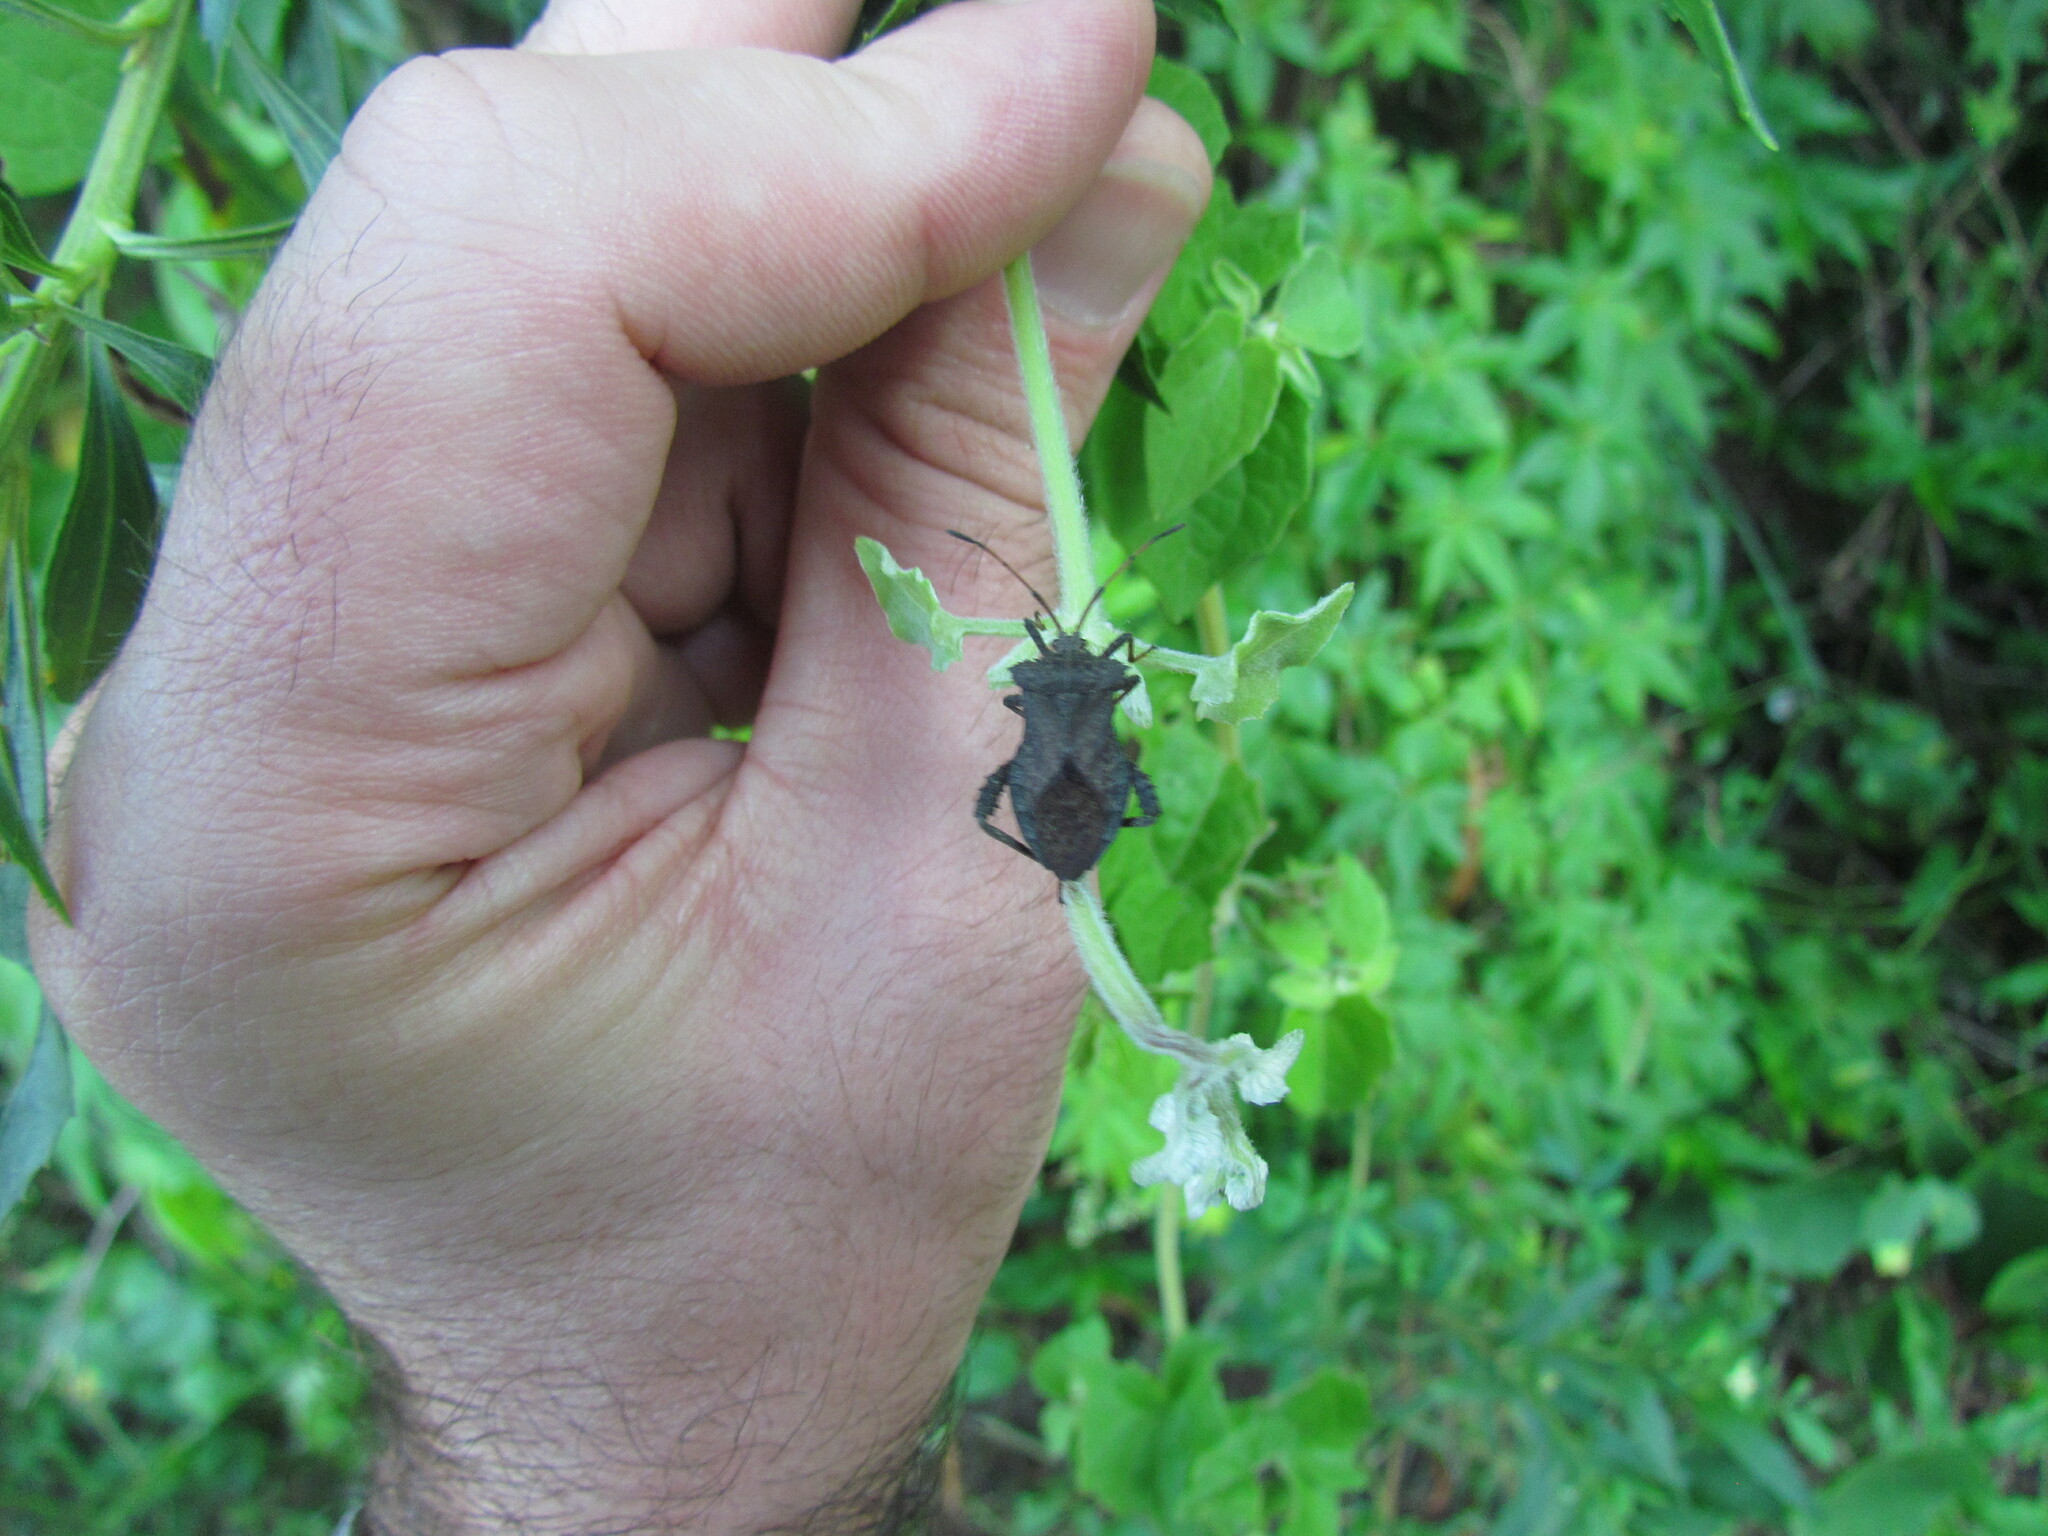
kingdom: Animalia
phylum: Arthropoda
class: Insecta
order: Hemiptera
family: Coreidae
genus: Camptischium
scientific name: Camptischium clavipes
